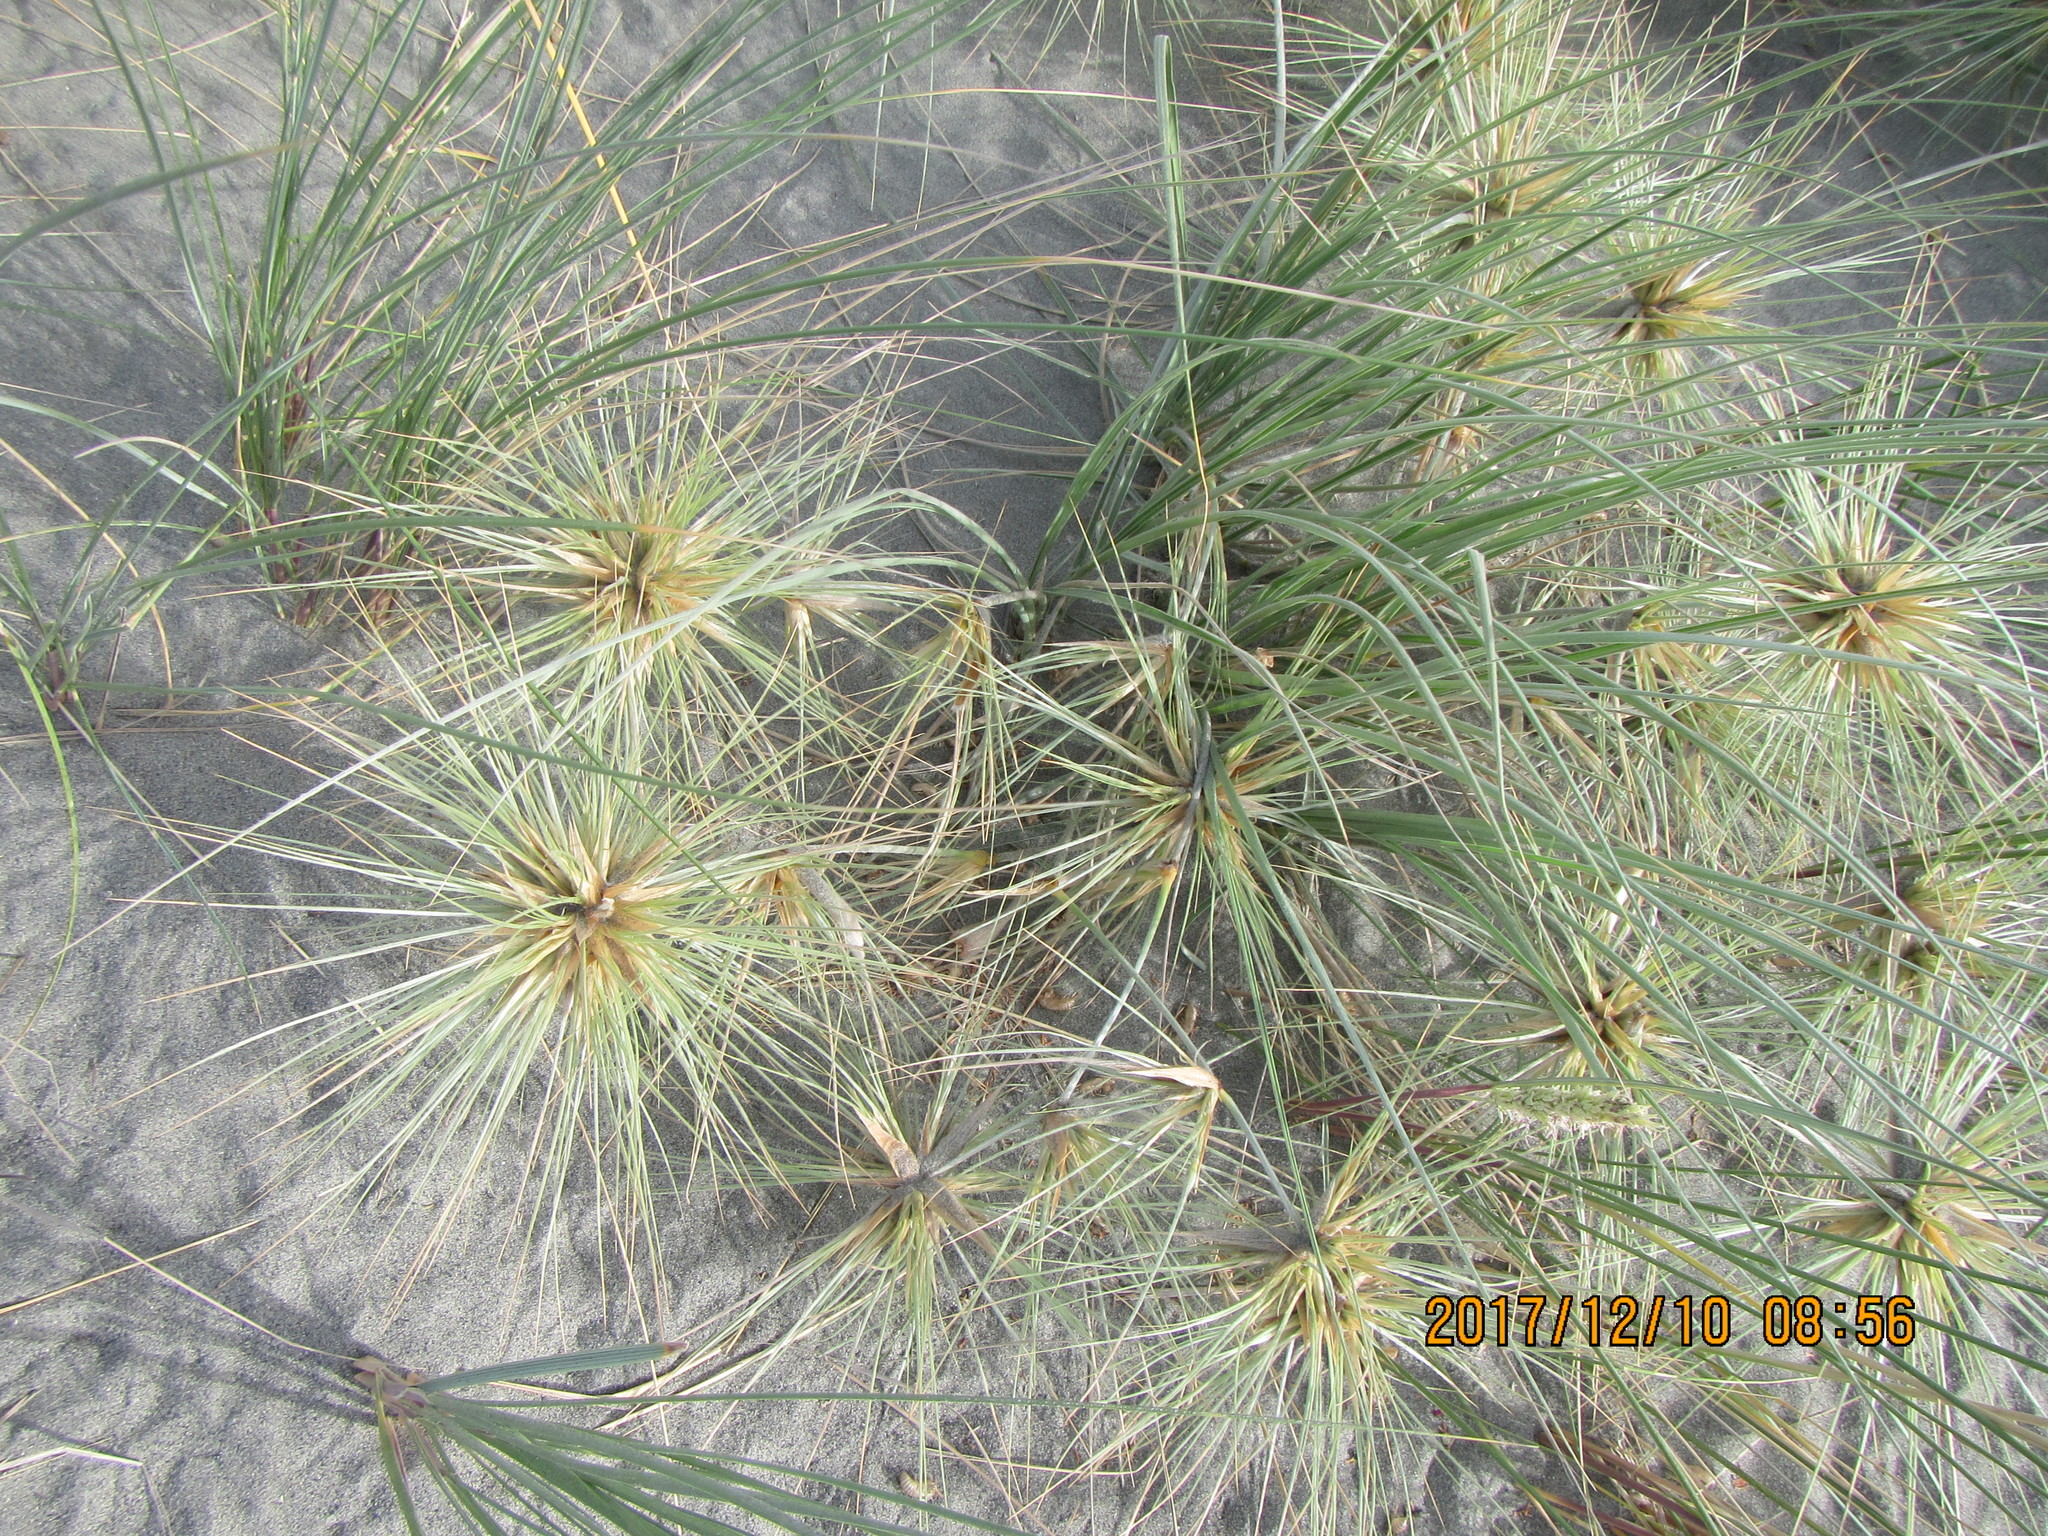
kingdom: Plantae
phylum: Tracheophyta
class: Liliopsida
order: Poales
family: Poaceae
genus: Spinifex
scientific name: Spinifex sericeus
